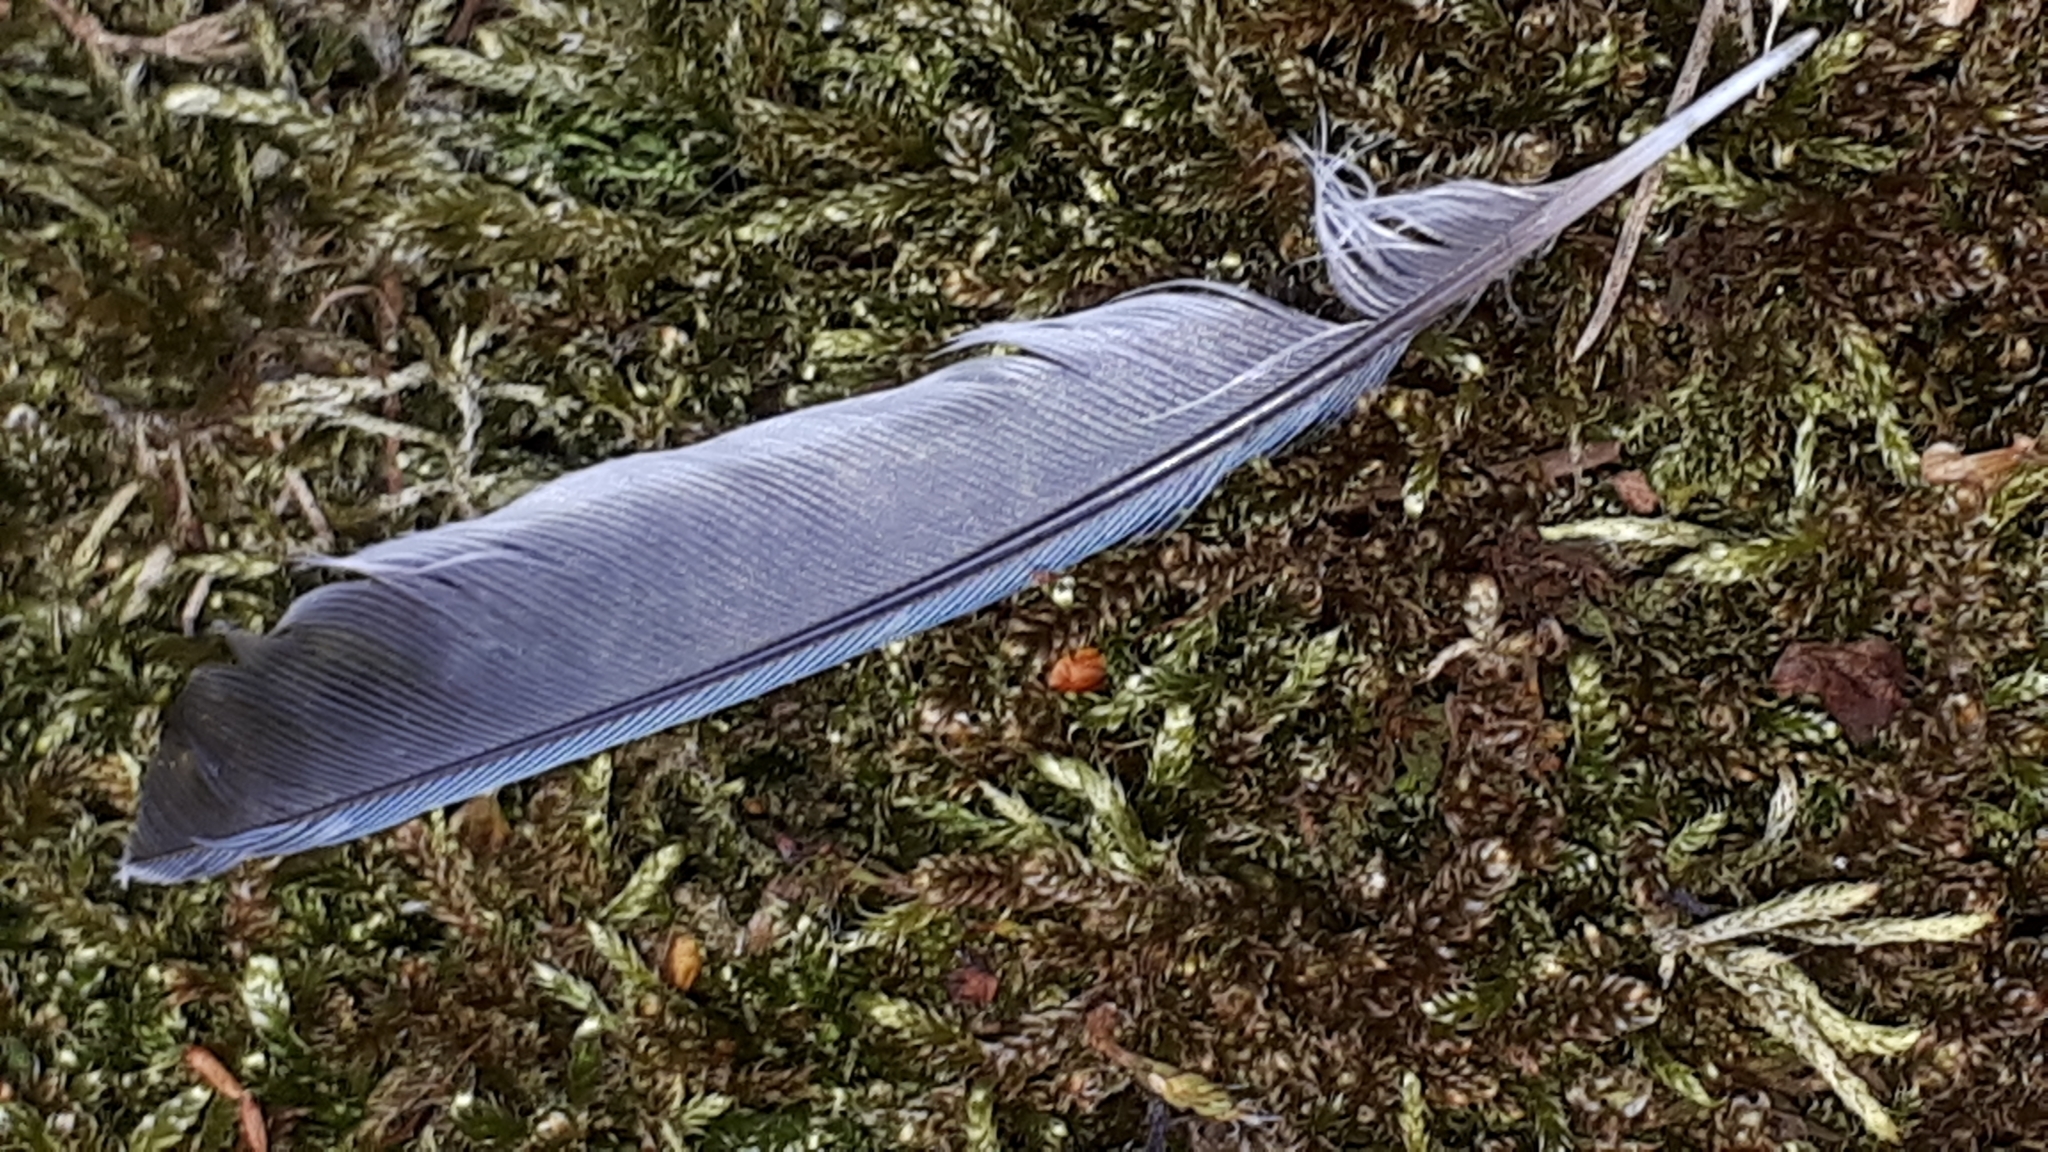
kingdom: Animalia
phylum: Chordata
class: Aves
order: Passeriformes
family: Paridae
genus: Cyanistes
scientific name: Cyanistes caeruleus
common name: Eurasian blue tit
